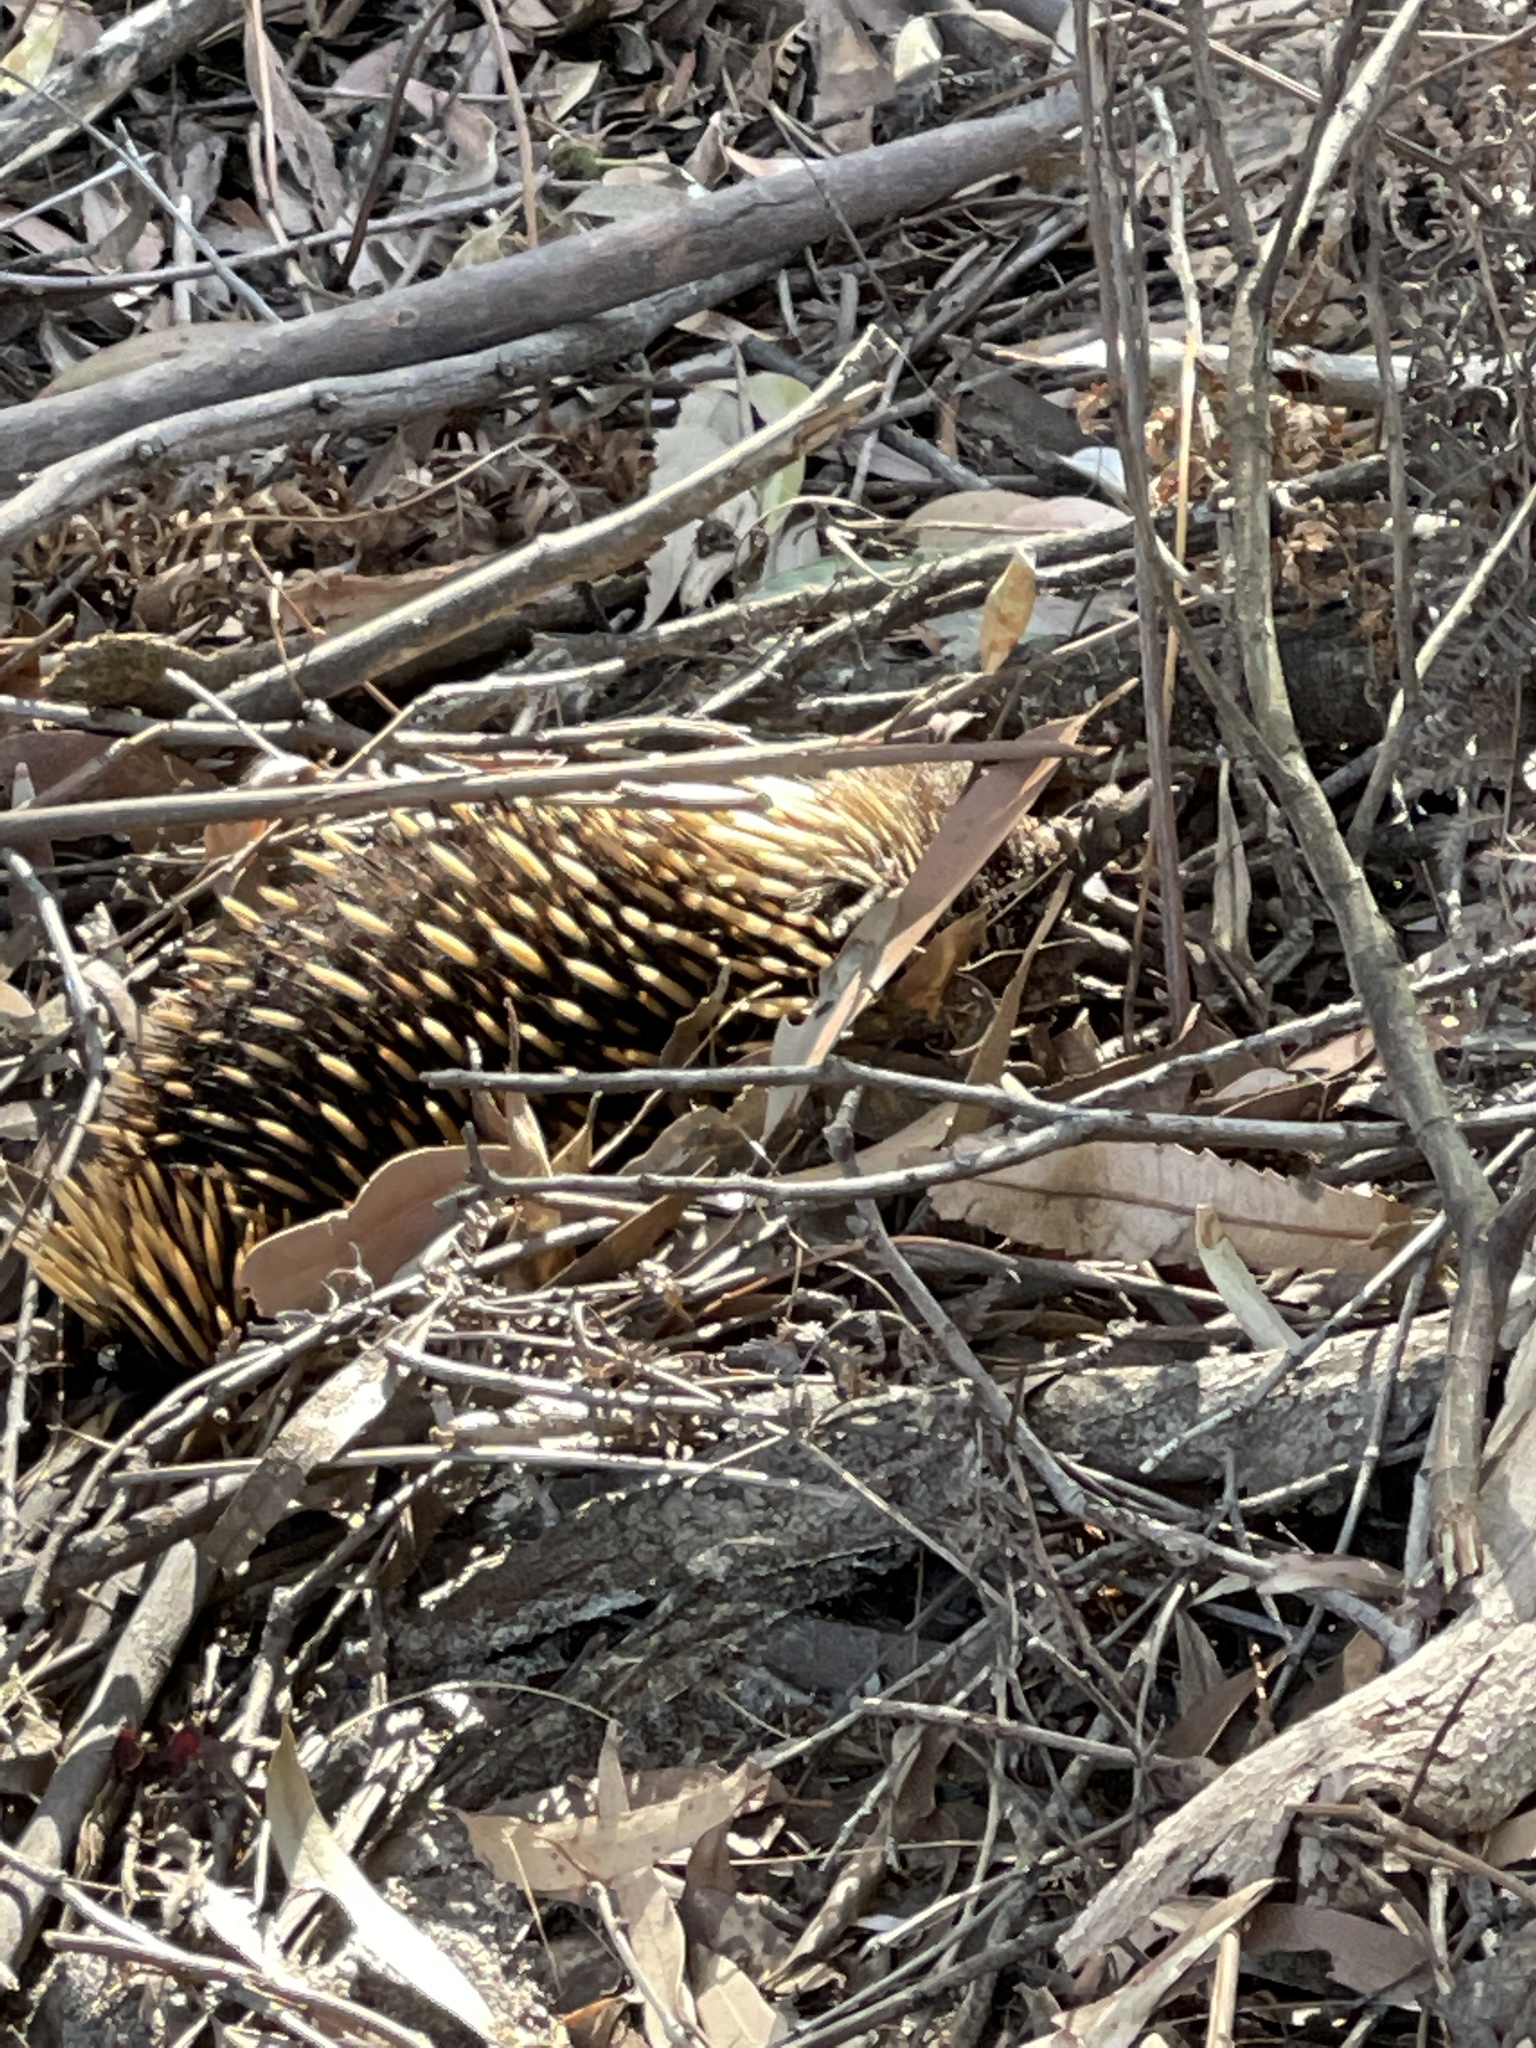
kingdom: Animalia
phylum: Chordata
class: Mammalia
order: Monotremata
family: Tachyglossidae
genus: Tachyglossus
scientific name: Tachyglossus aculeatus
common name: Short-beaked echidna
